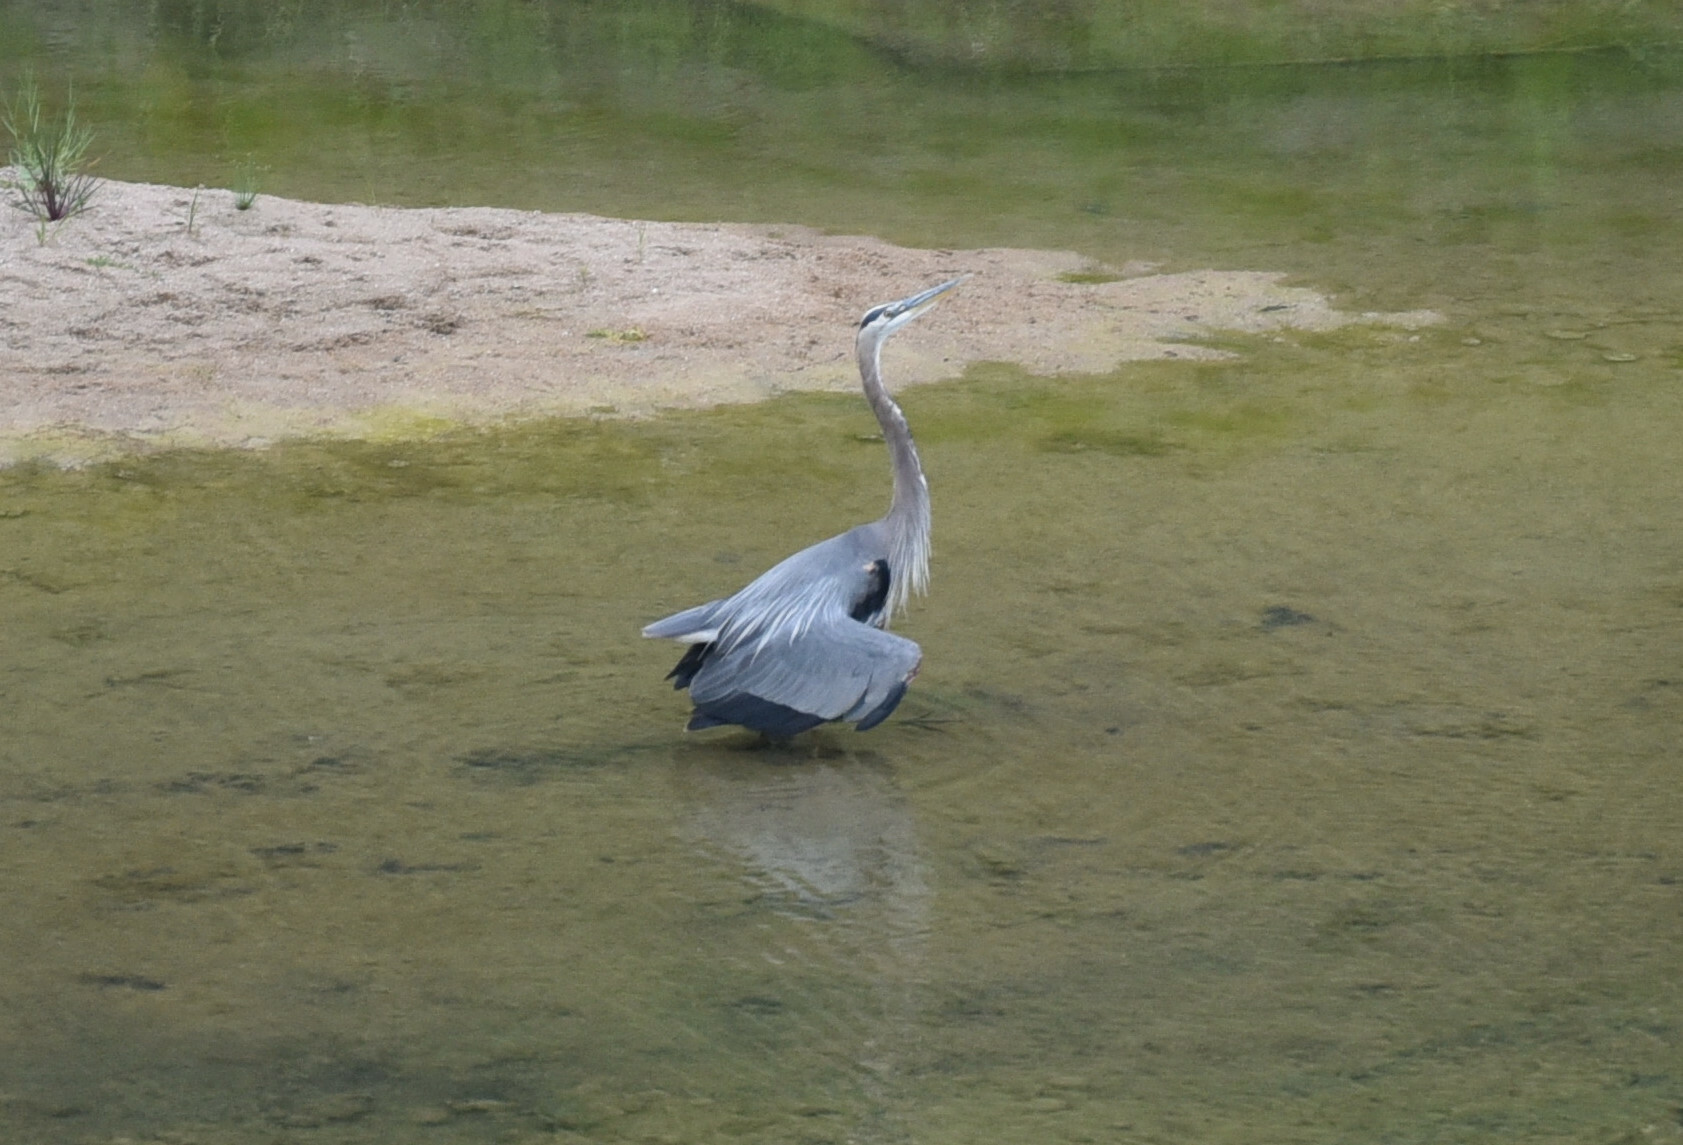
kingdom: Animalia
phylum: Chordata
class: Aves
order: Pelecaniformes
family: Ardeidae
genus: Ardea
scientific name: Ardea herodias
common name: Great blue heron
